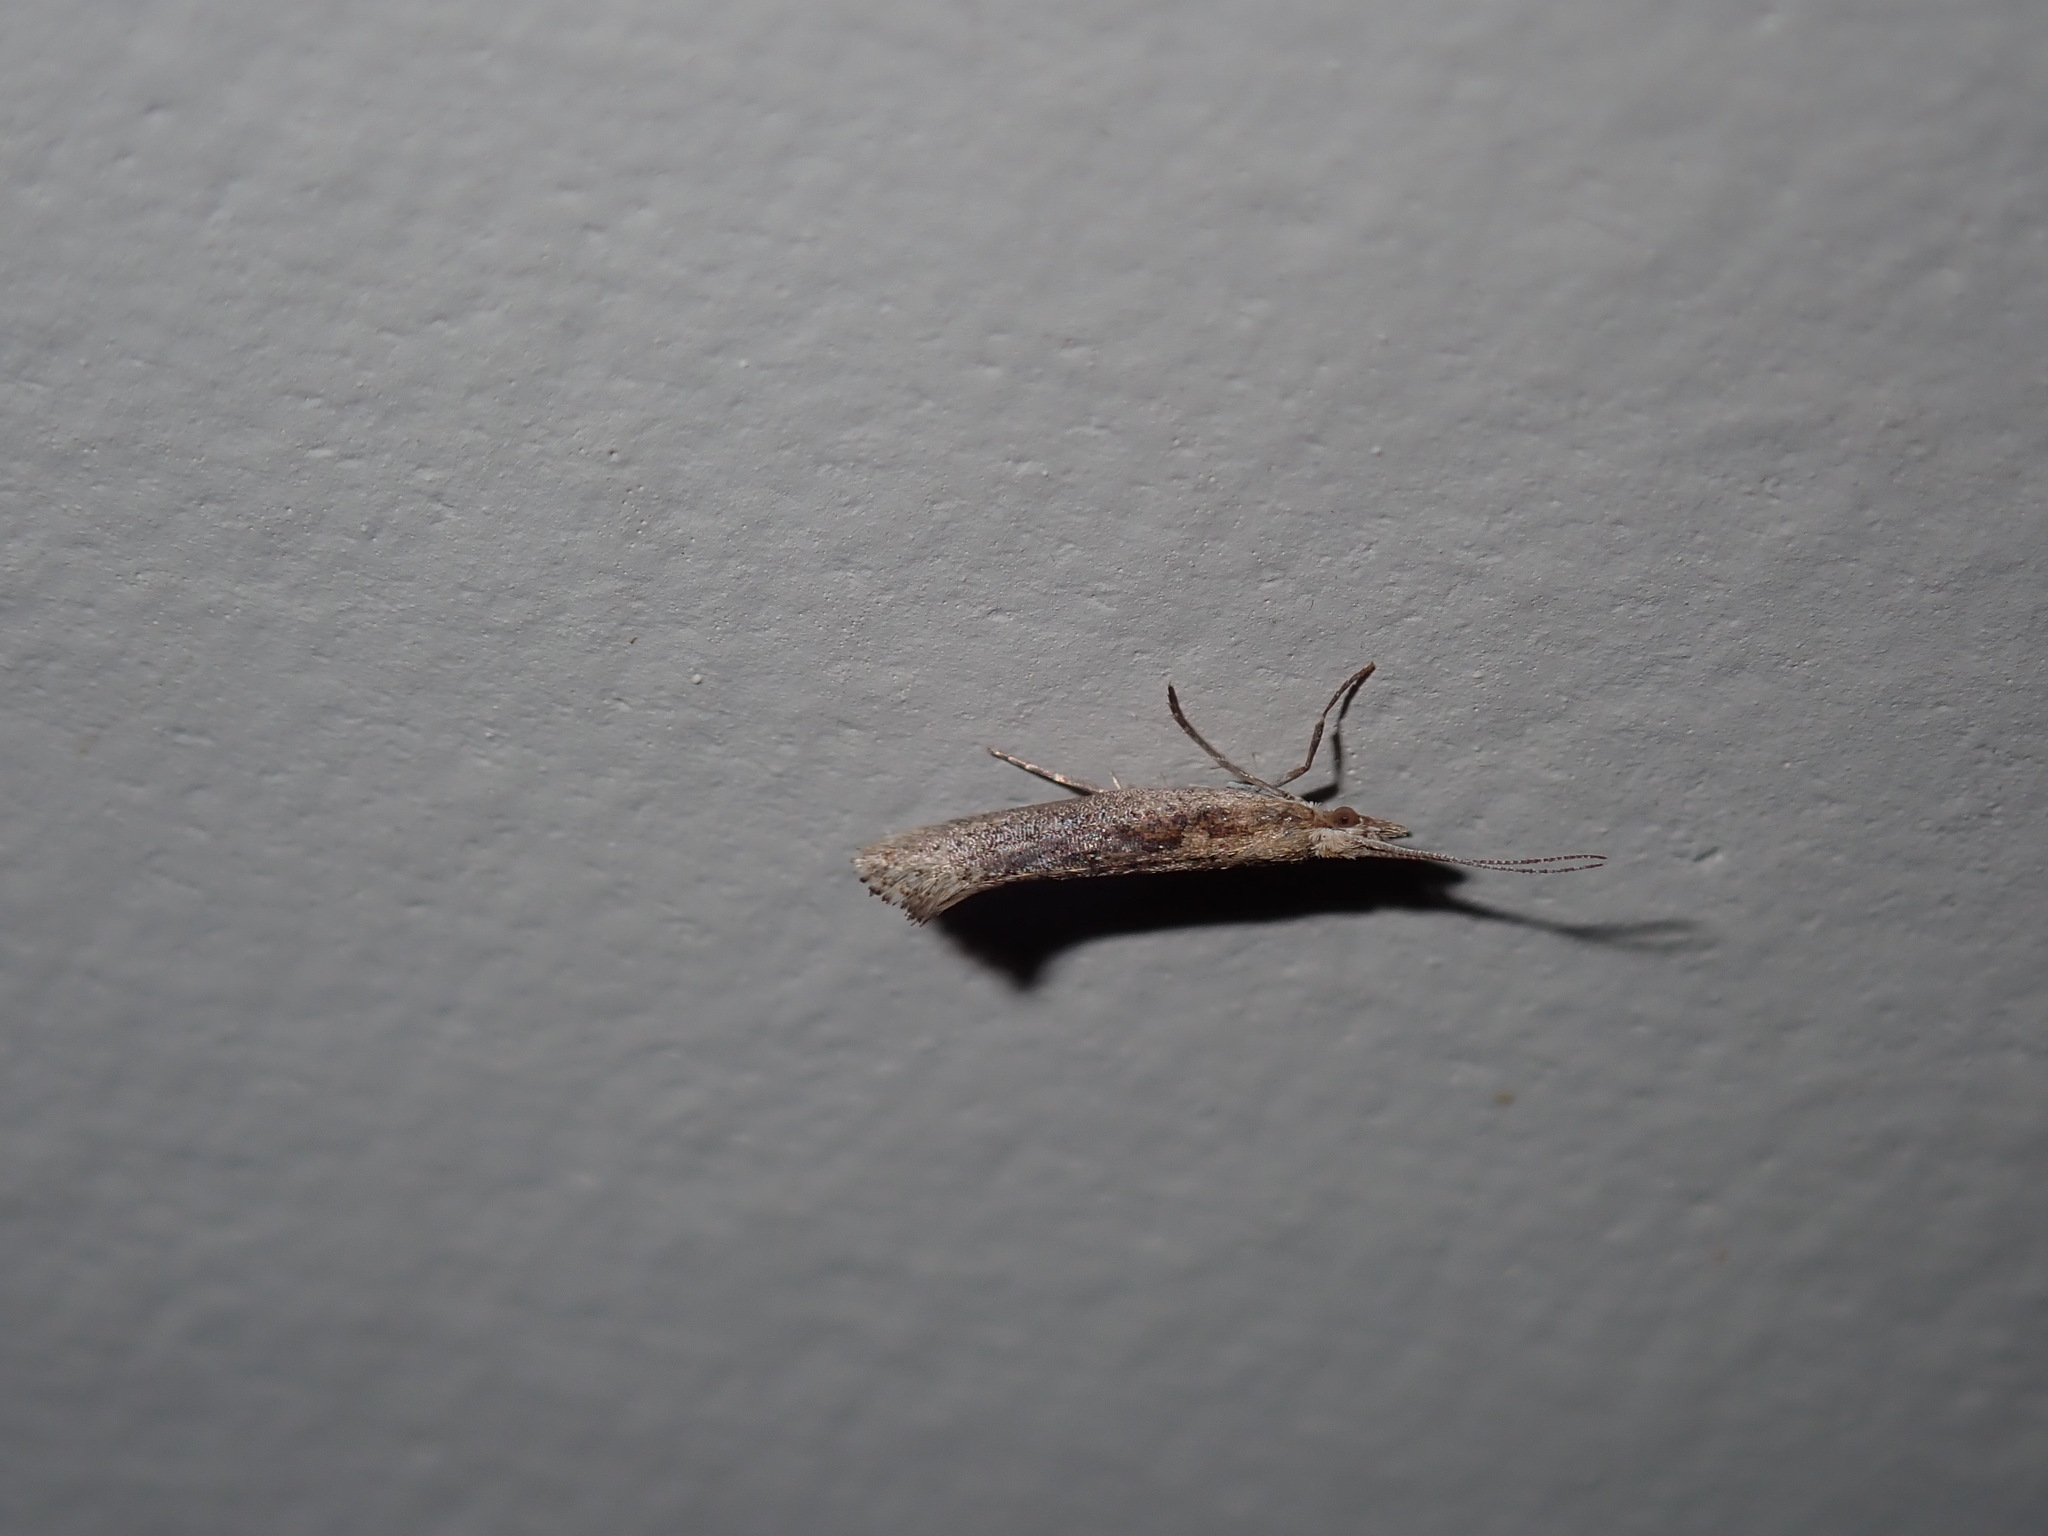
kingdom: Animalia
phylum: Arthropoda
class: Insecta
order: Lepidoptera
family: Plutellidae
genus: Plutella
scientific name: Plutella
